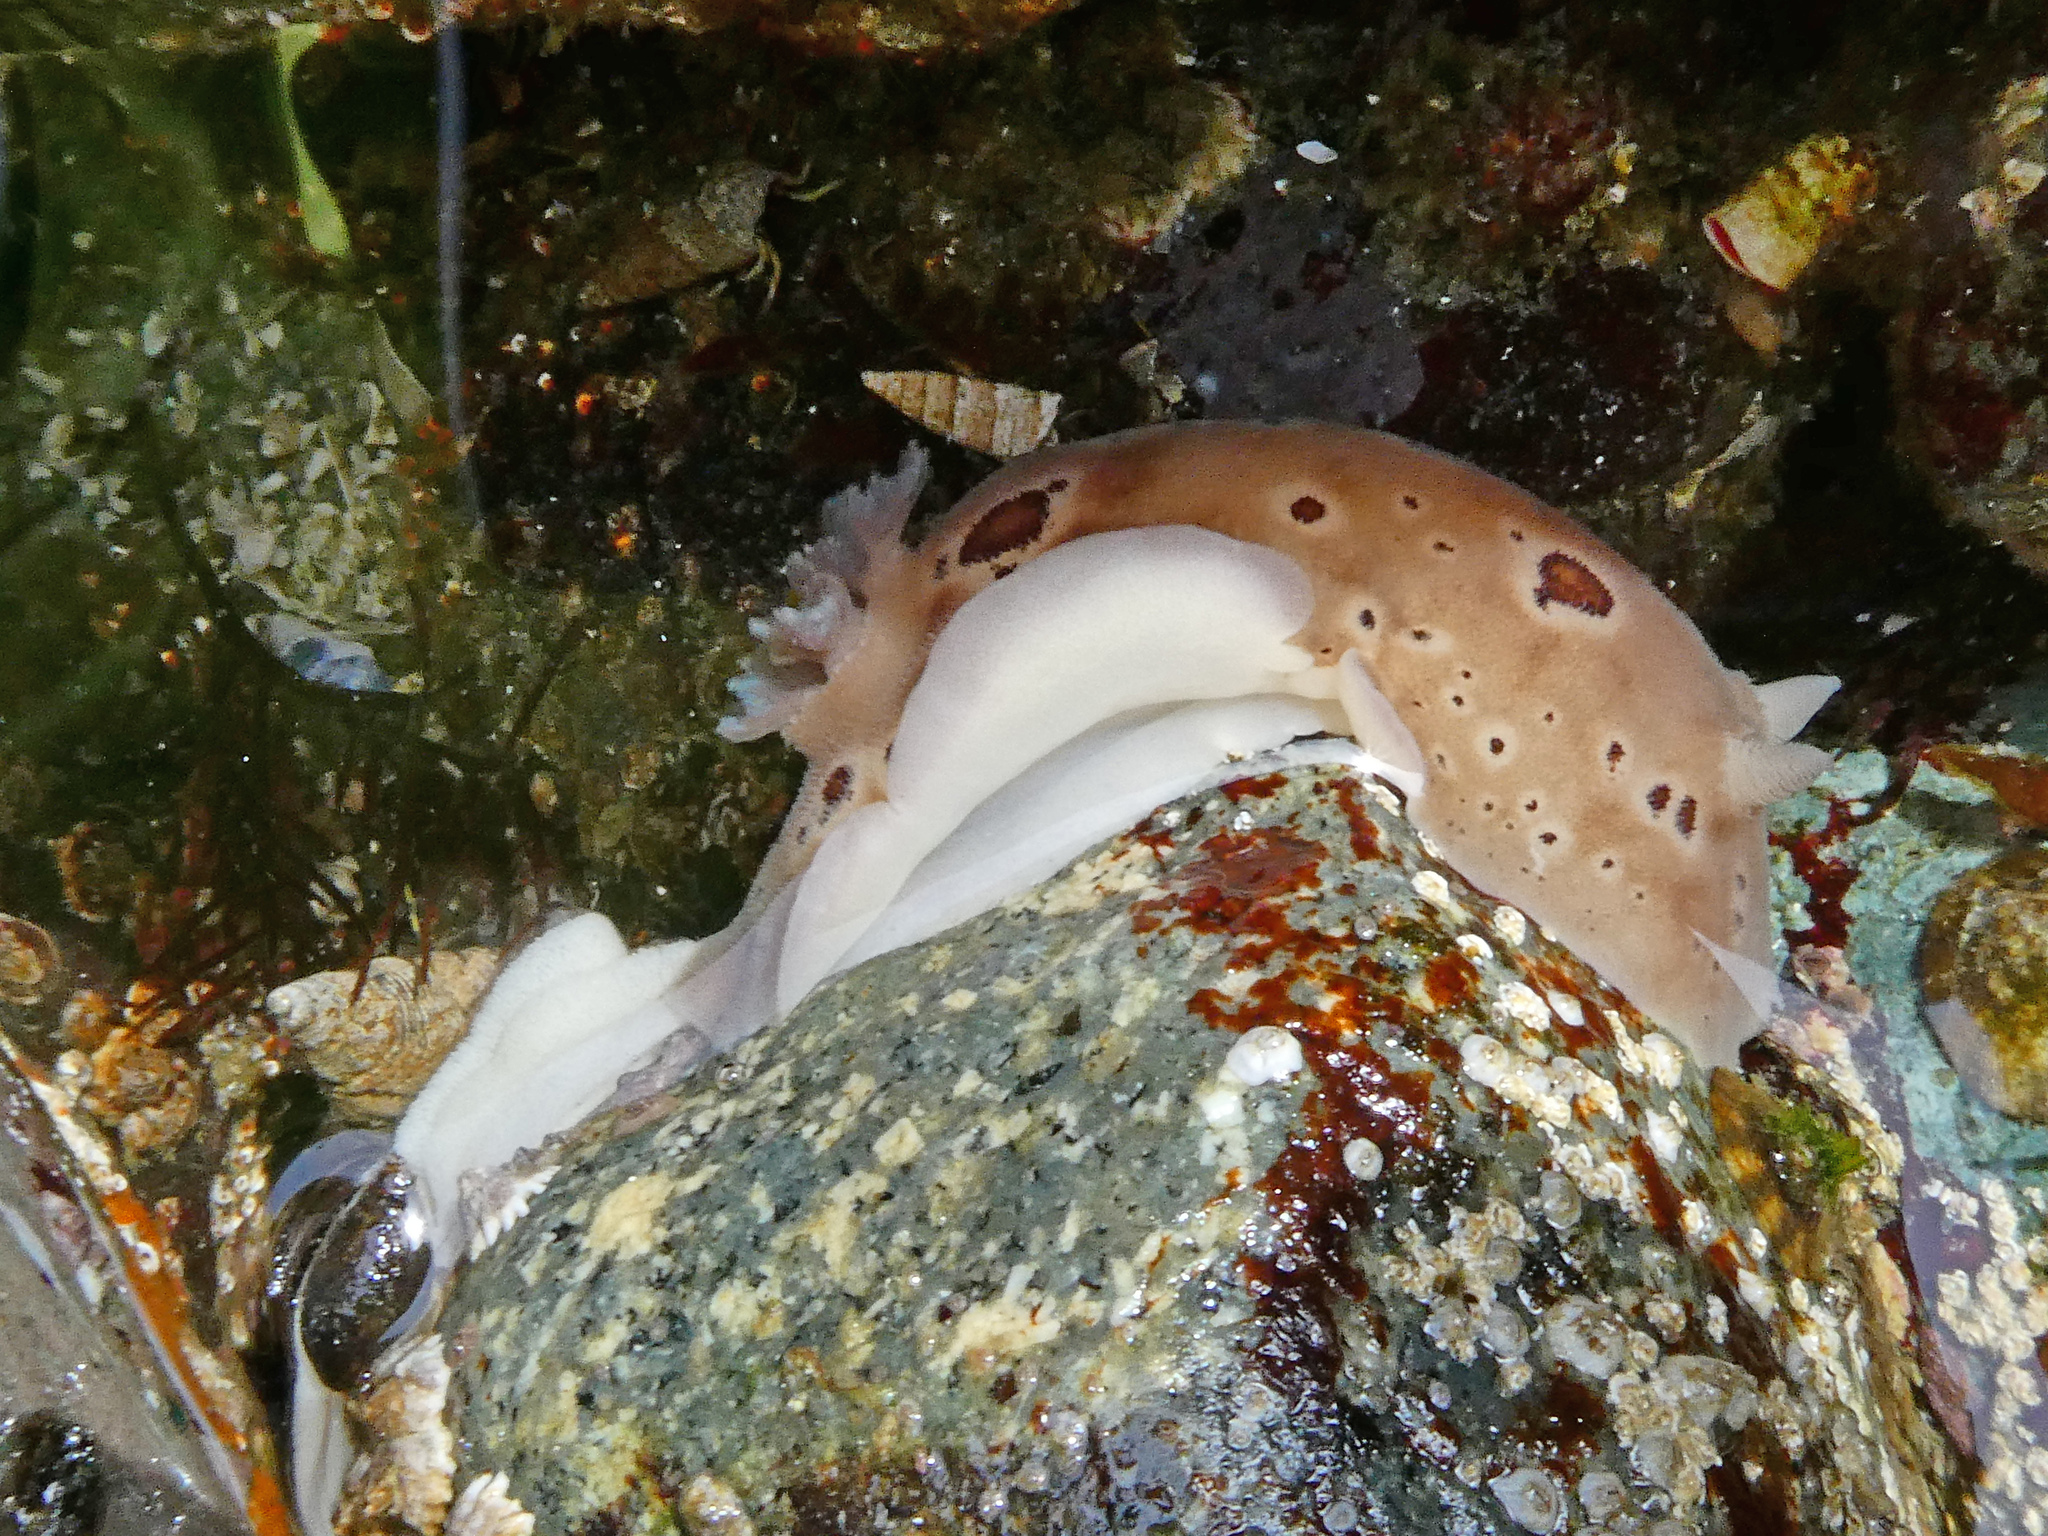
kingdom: Animalia
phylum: Mollusca
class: Gastropoda
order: Nudibranchia
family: Discodorididae
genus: Diaulula
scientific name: Diaulula odonoghuei
